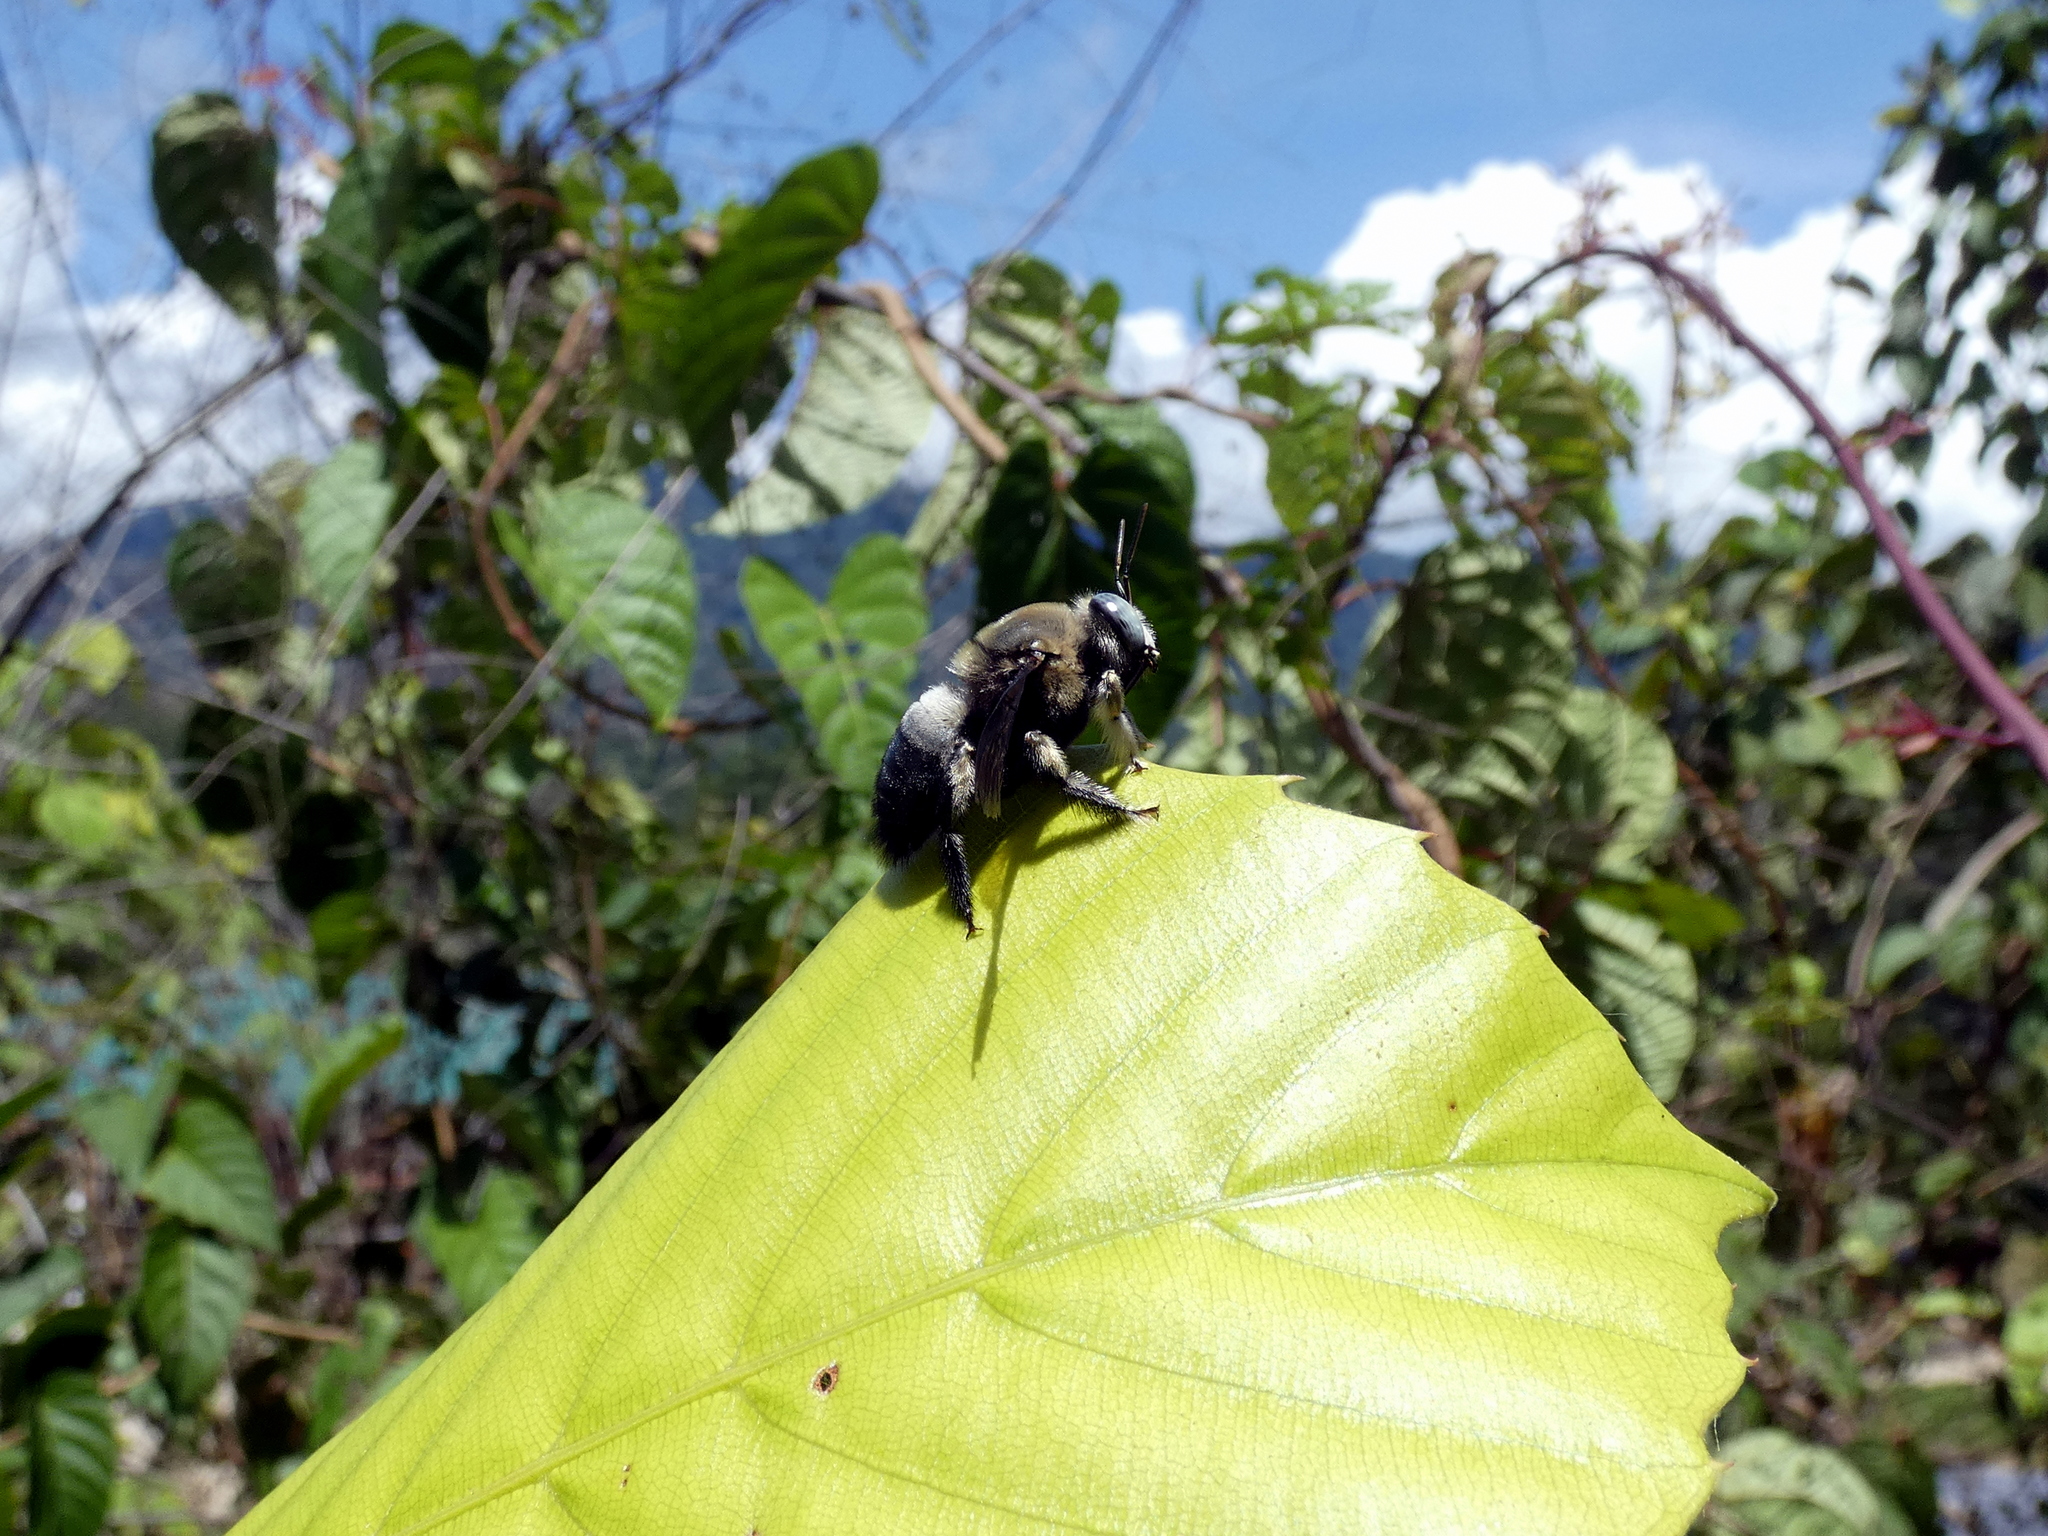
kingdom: Animalia
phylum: Arthropoda
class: Insecta
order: Hymenoptera
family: Apidae
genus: Xylocopa
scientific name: Xylocopa dejeanii
